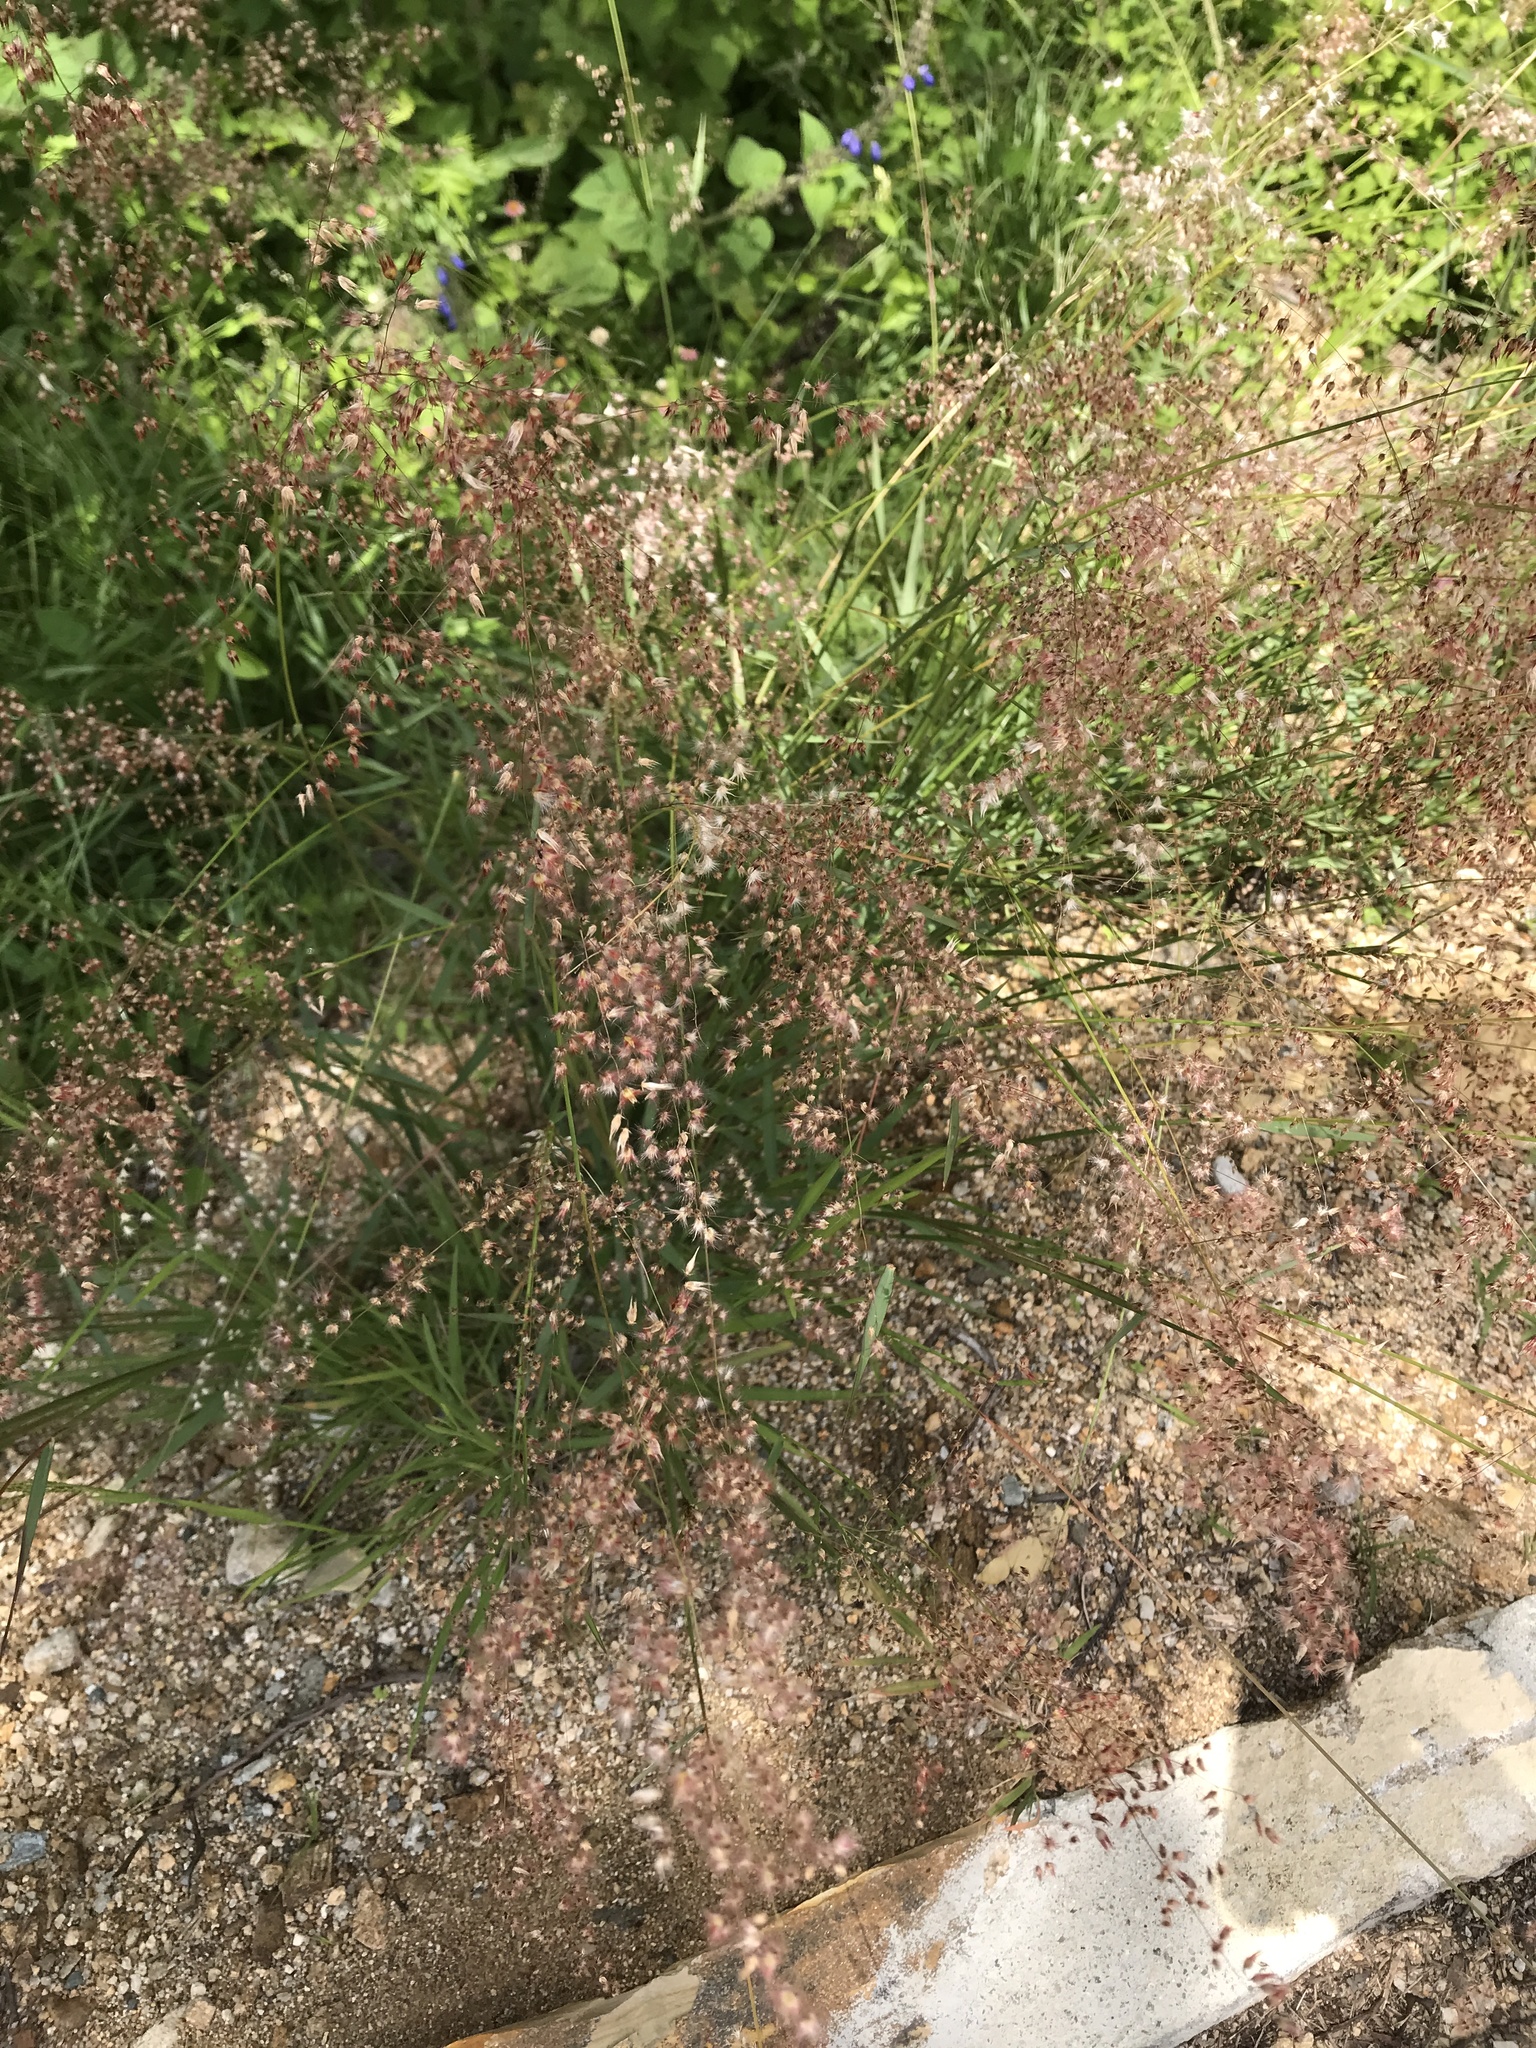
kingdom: Plantae
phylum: Tracheophyta
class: Liliopsida
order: Poales
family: Poaceae
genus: Melinis
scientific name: Melinis repens
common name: Rose natal grass
